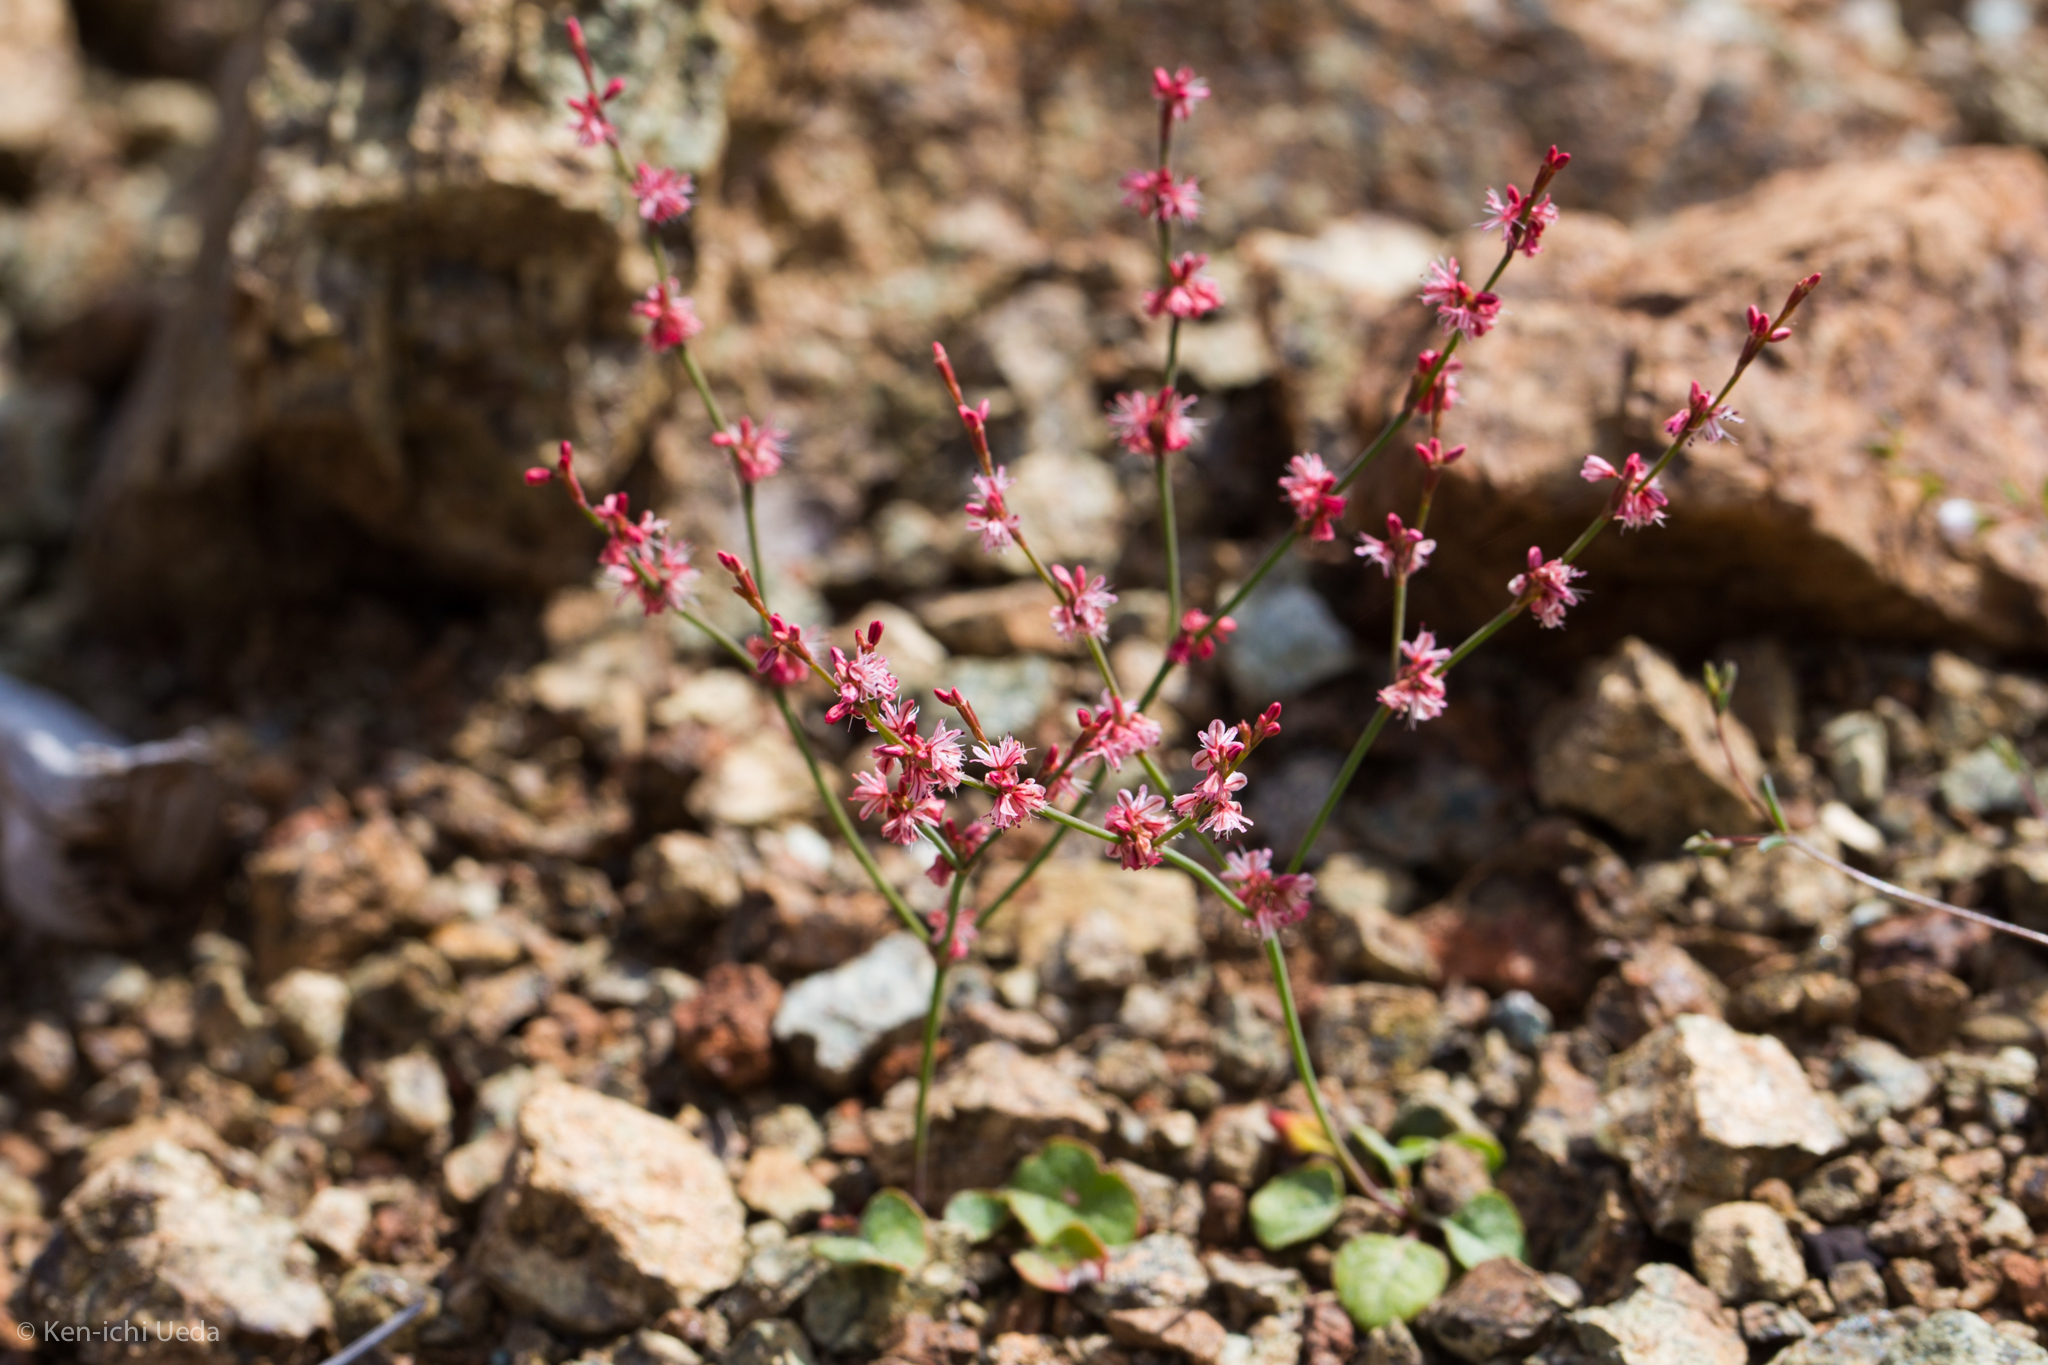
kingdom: Plantae
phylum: Tracheophyta
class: Magnoliopsida
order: Caryophyllales
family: Polygonaceae
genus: Eriogonum
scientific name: Eriogonum luteolum
